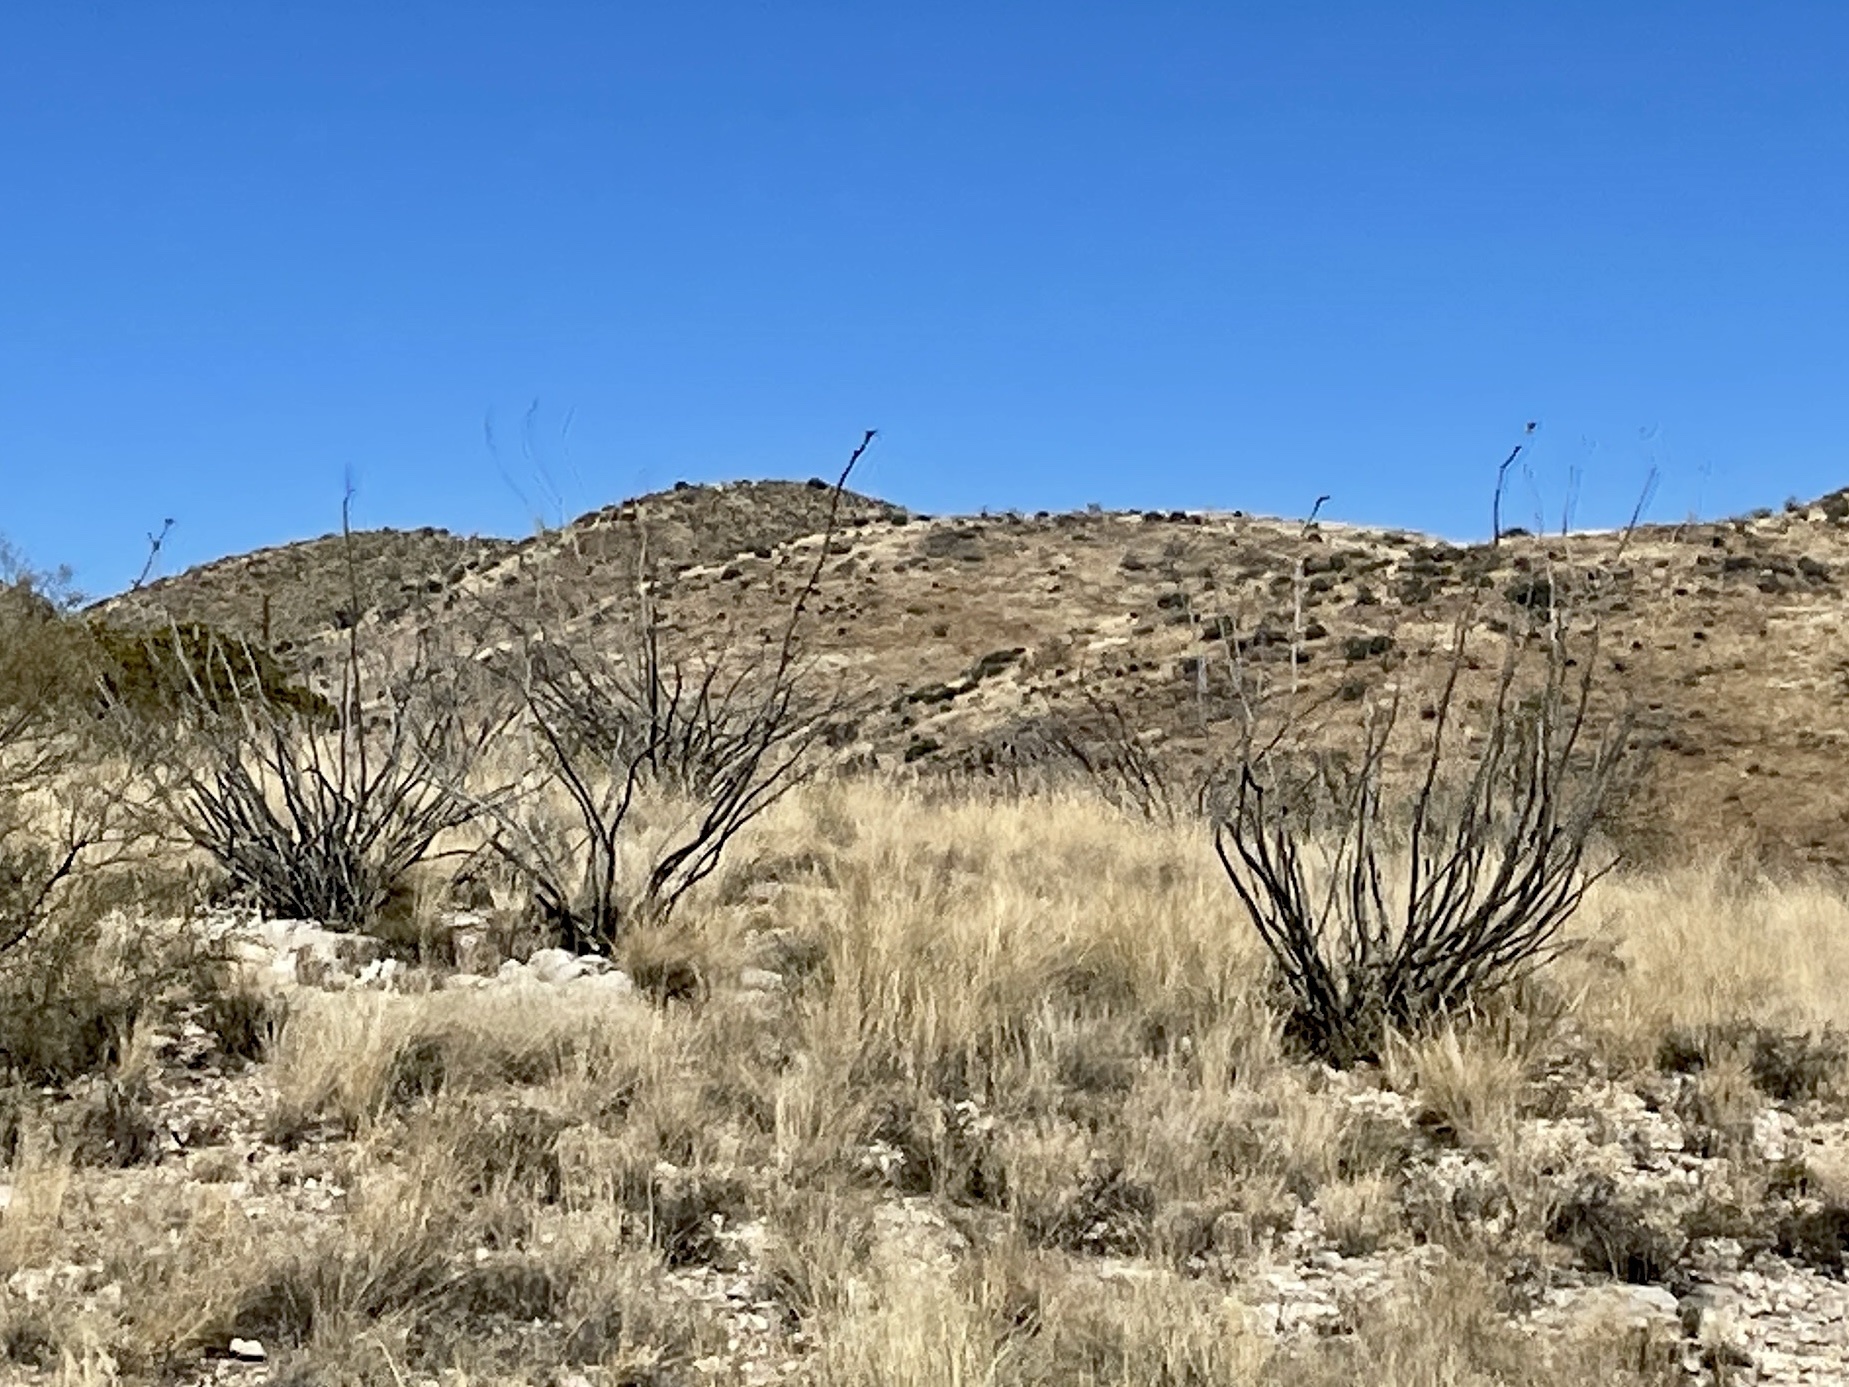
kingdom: Plantae
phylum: Tracheophyta
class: Magnoliopsida
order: Ericales
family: Fouquieriaceae
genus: Fouquieria
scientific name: Fouquieria splendens
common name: Vine-cactus
